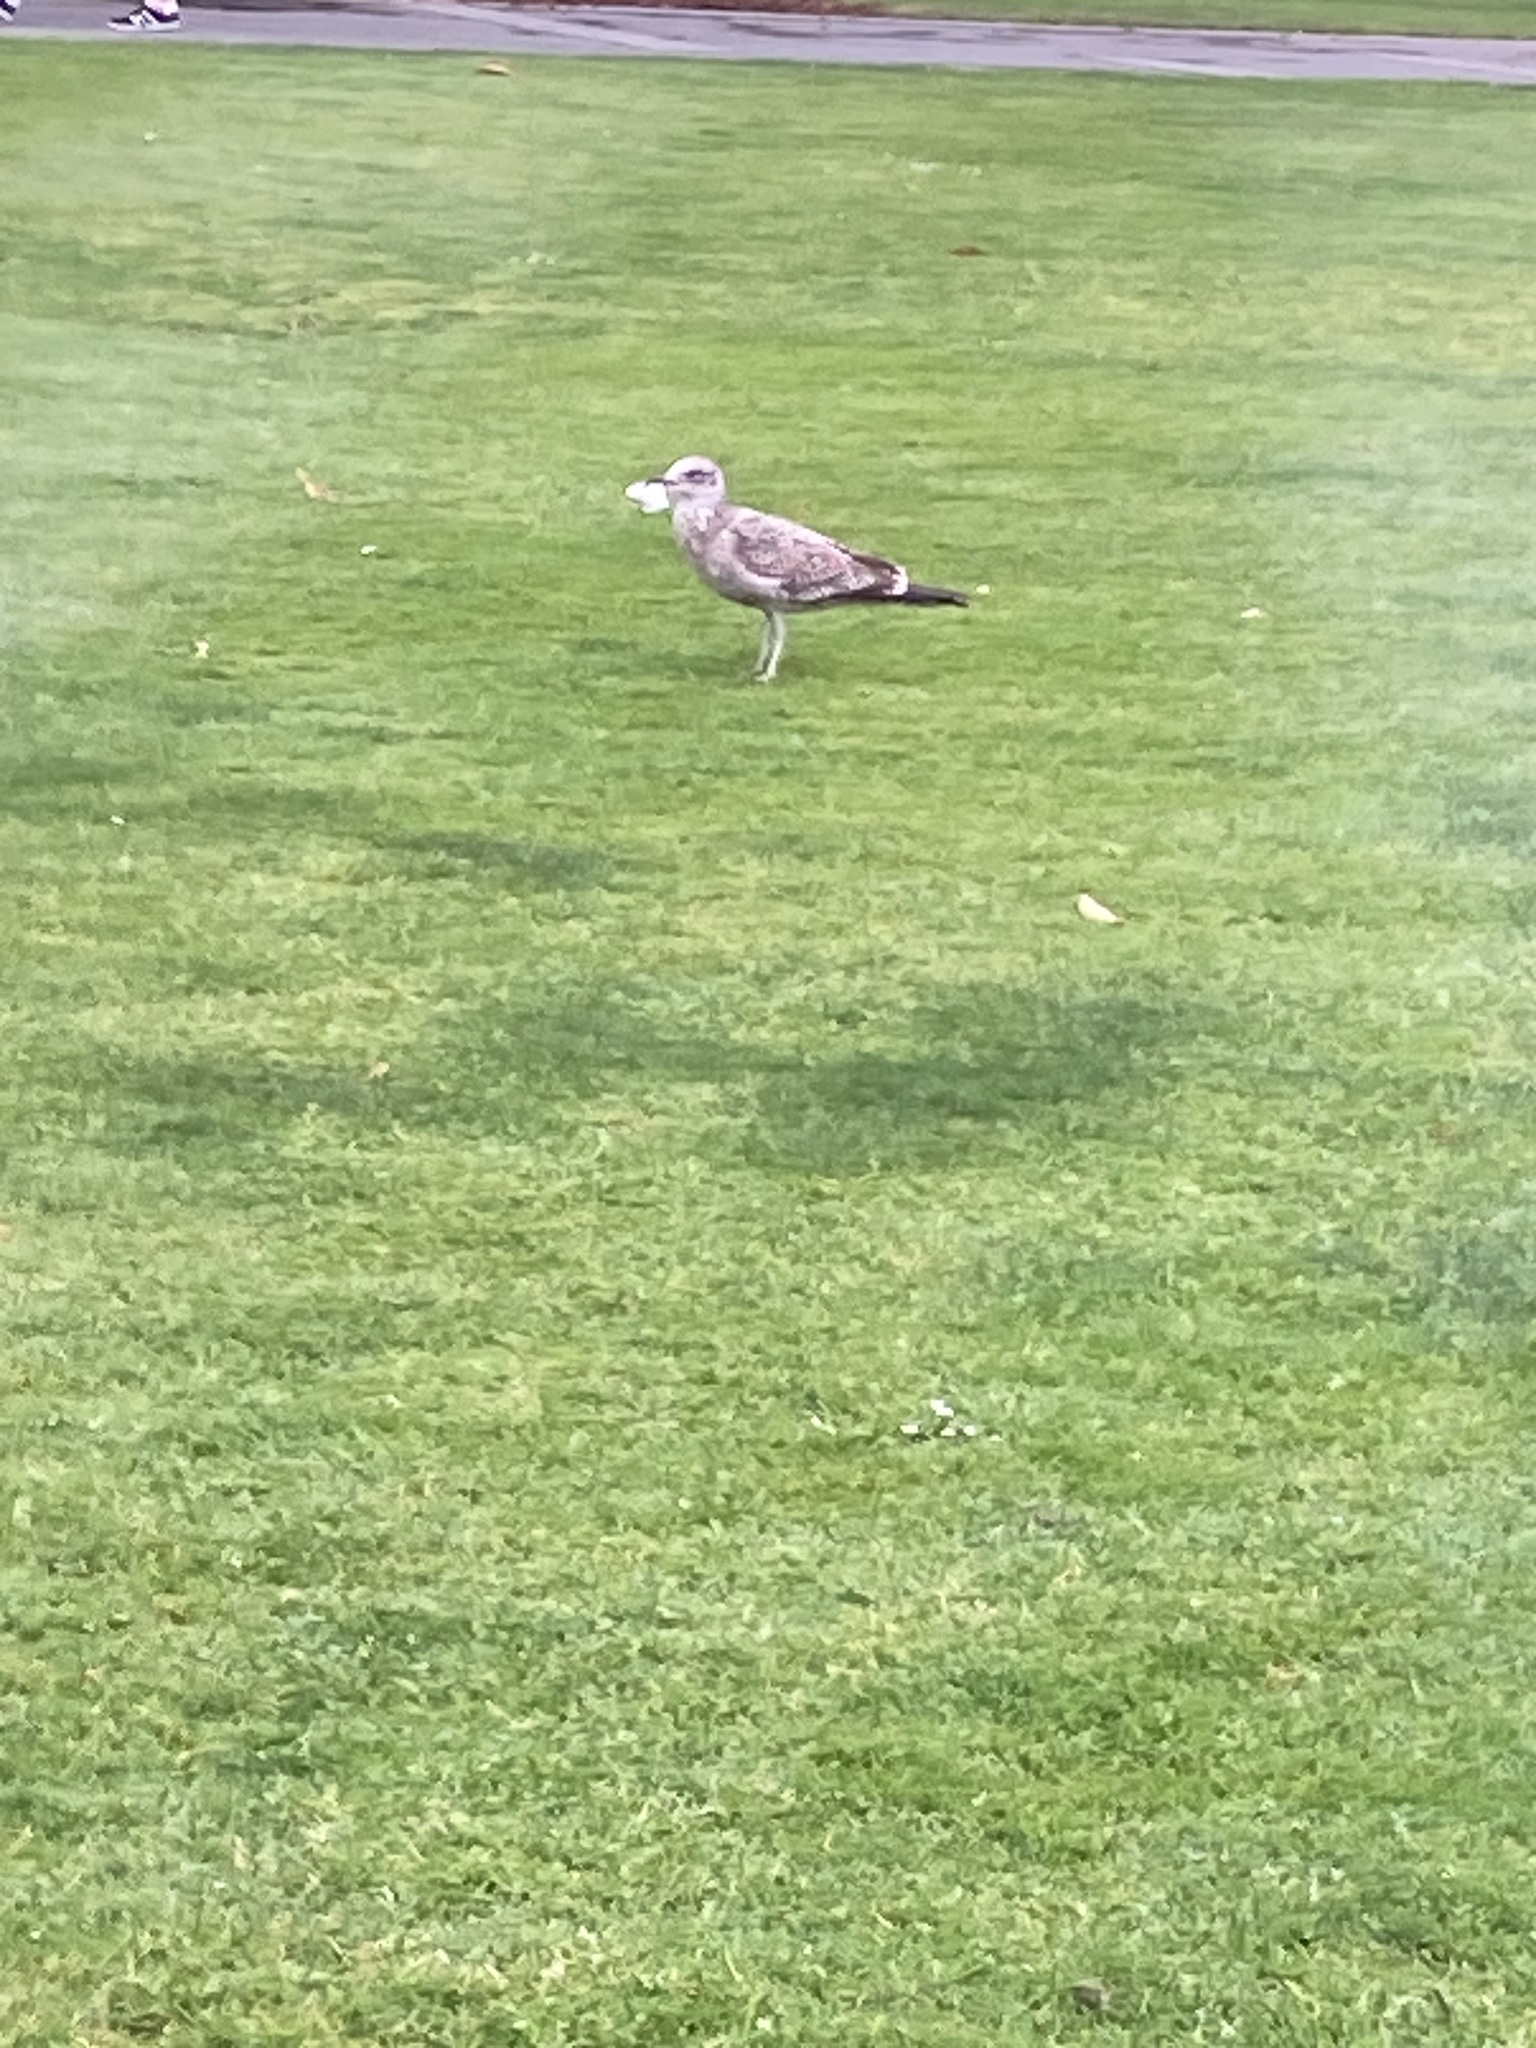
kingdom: Animalia
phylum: Chordata
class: Aves
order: Charadriiformes
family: Laridae
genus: Larus
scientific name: Larus dominicanus
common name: Kelp gull
